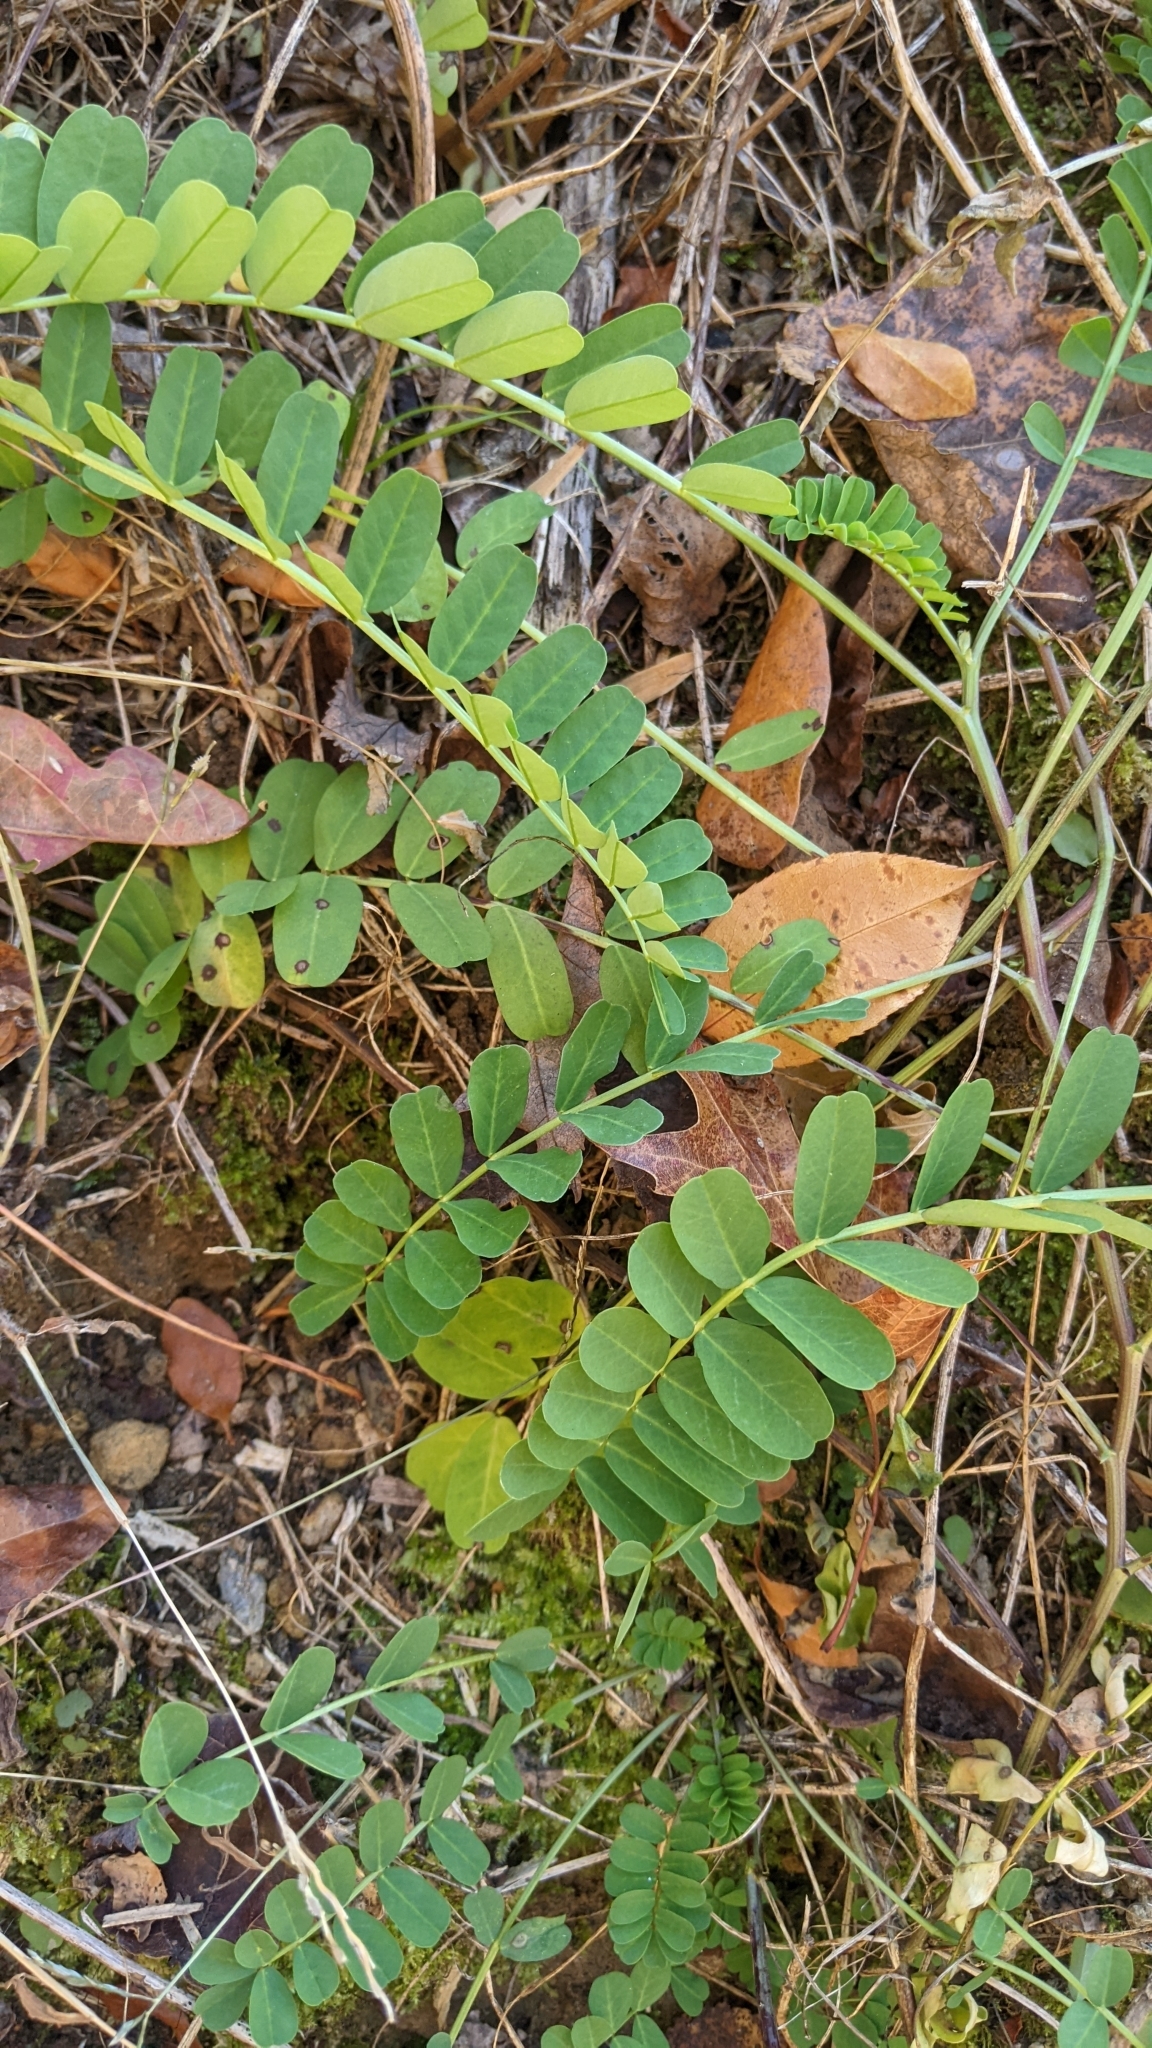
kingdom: Plantae
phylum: Tracheophyta
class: Magnoliopsida
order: Fabales
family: Fabaceae
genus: Coronilla
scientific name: Coronilla varia
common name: Crownvetch
